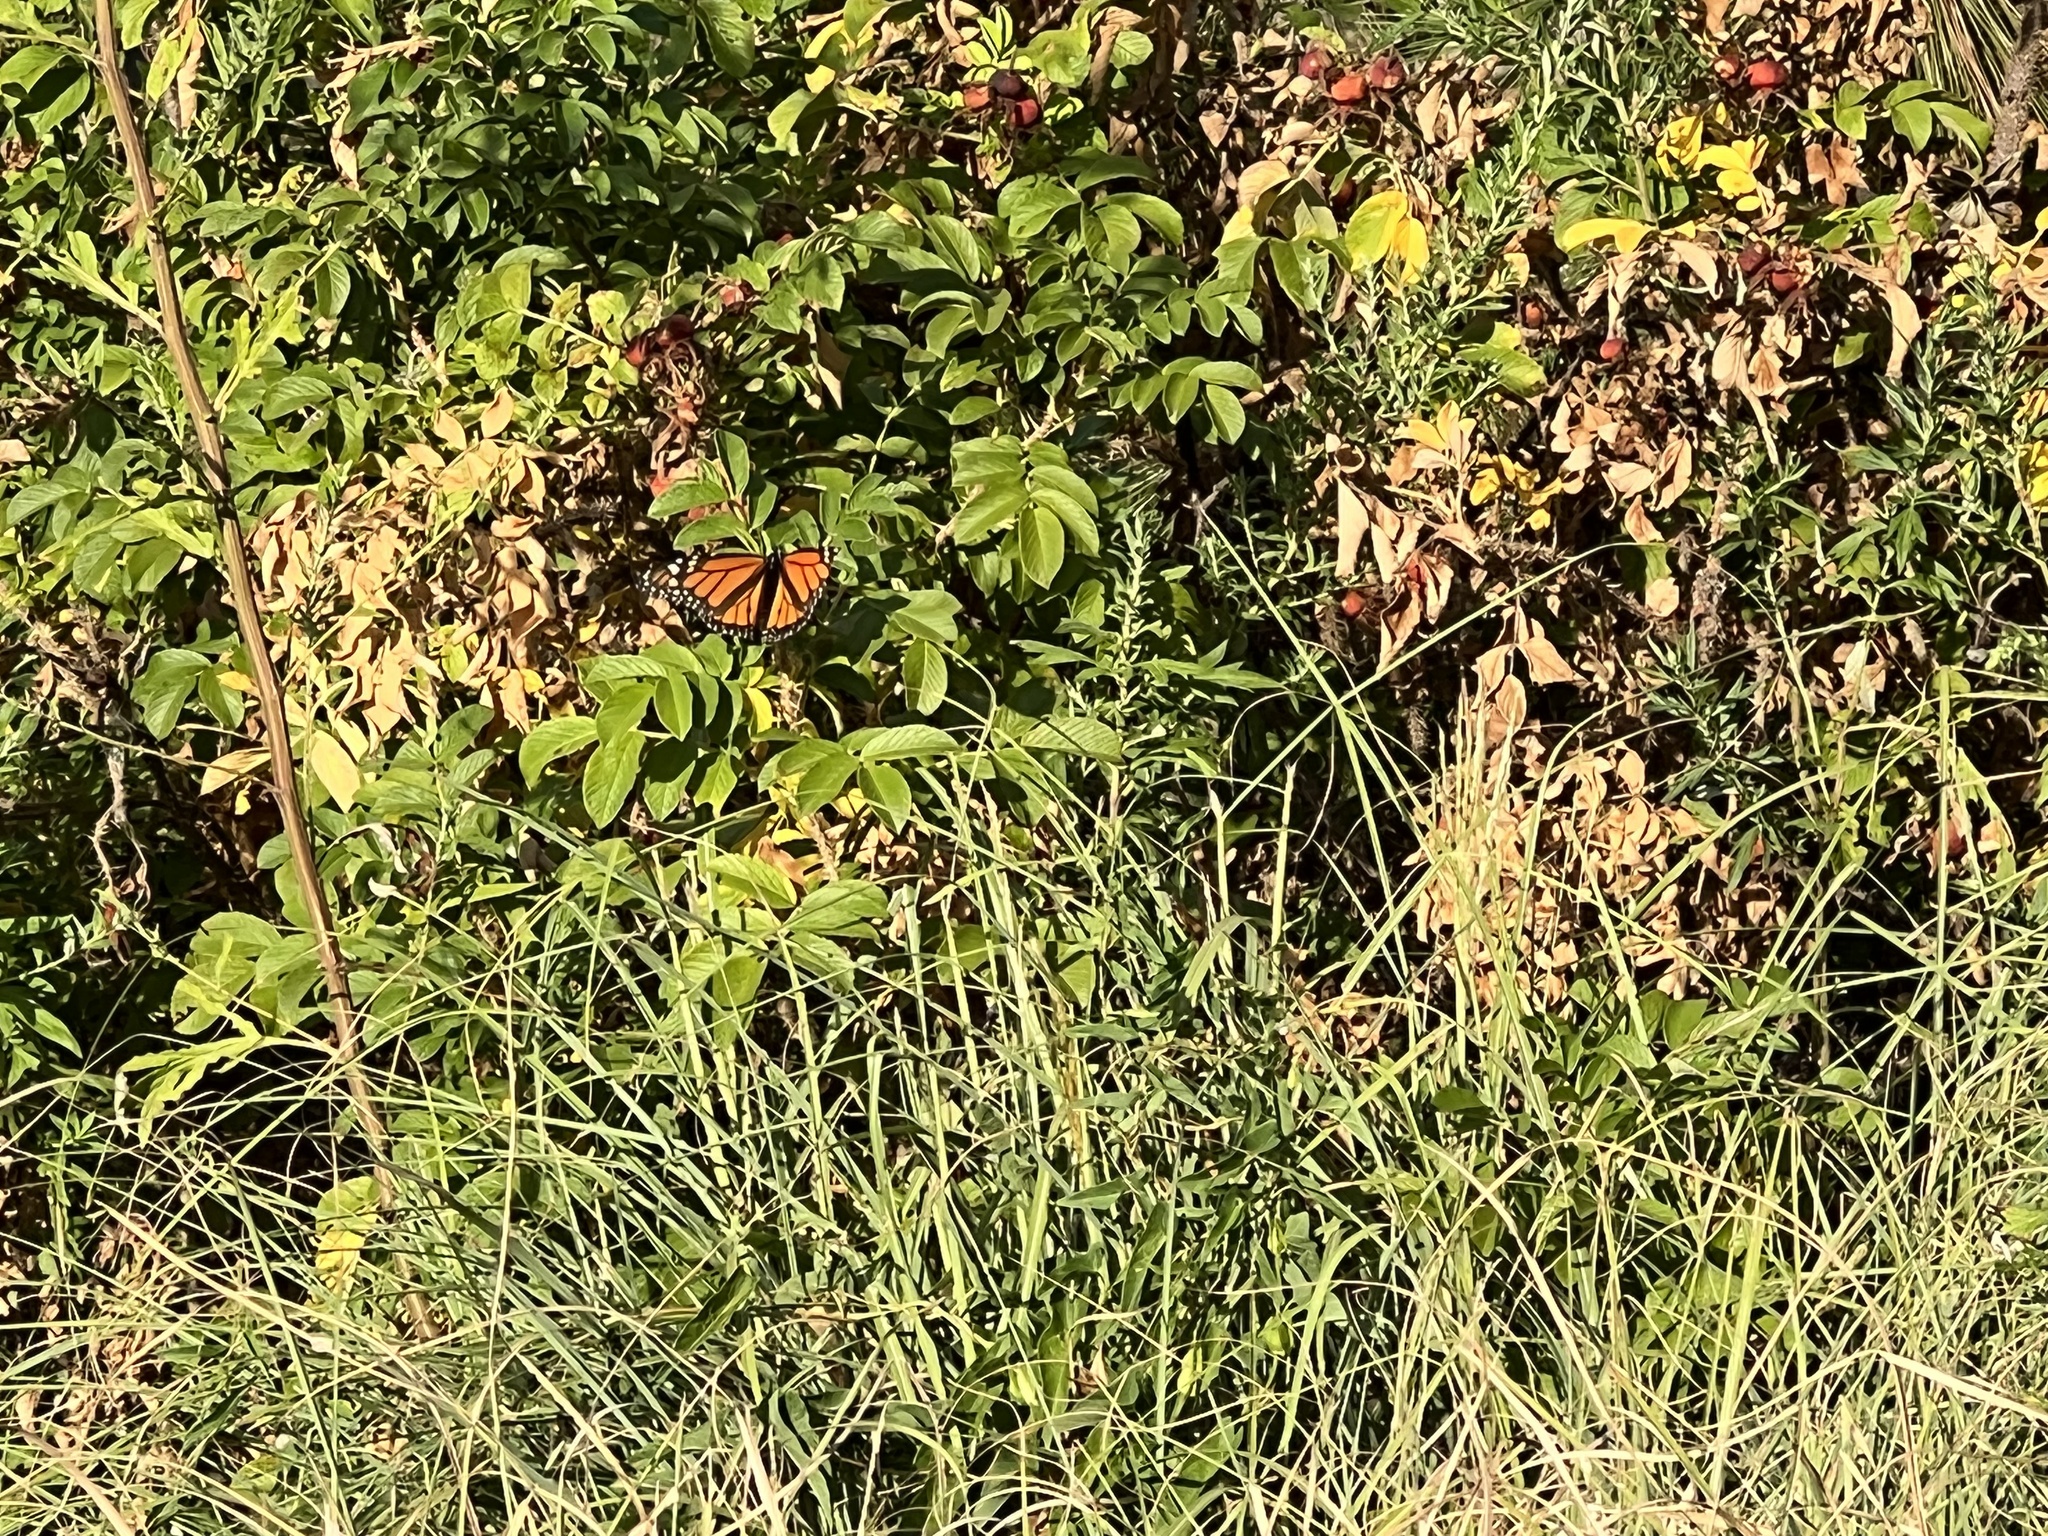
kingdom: Animalia
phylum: Arthropoda
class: Insecta
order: Lepidoptera
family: Nymphalidae
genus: Danaus
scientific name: Danaus plexippus
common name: Monarch
